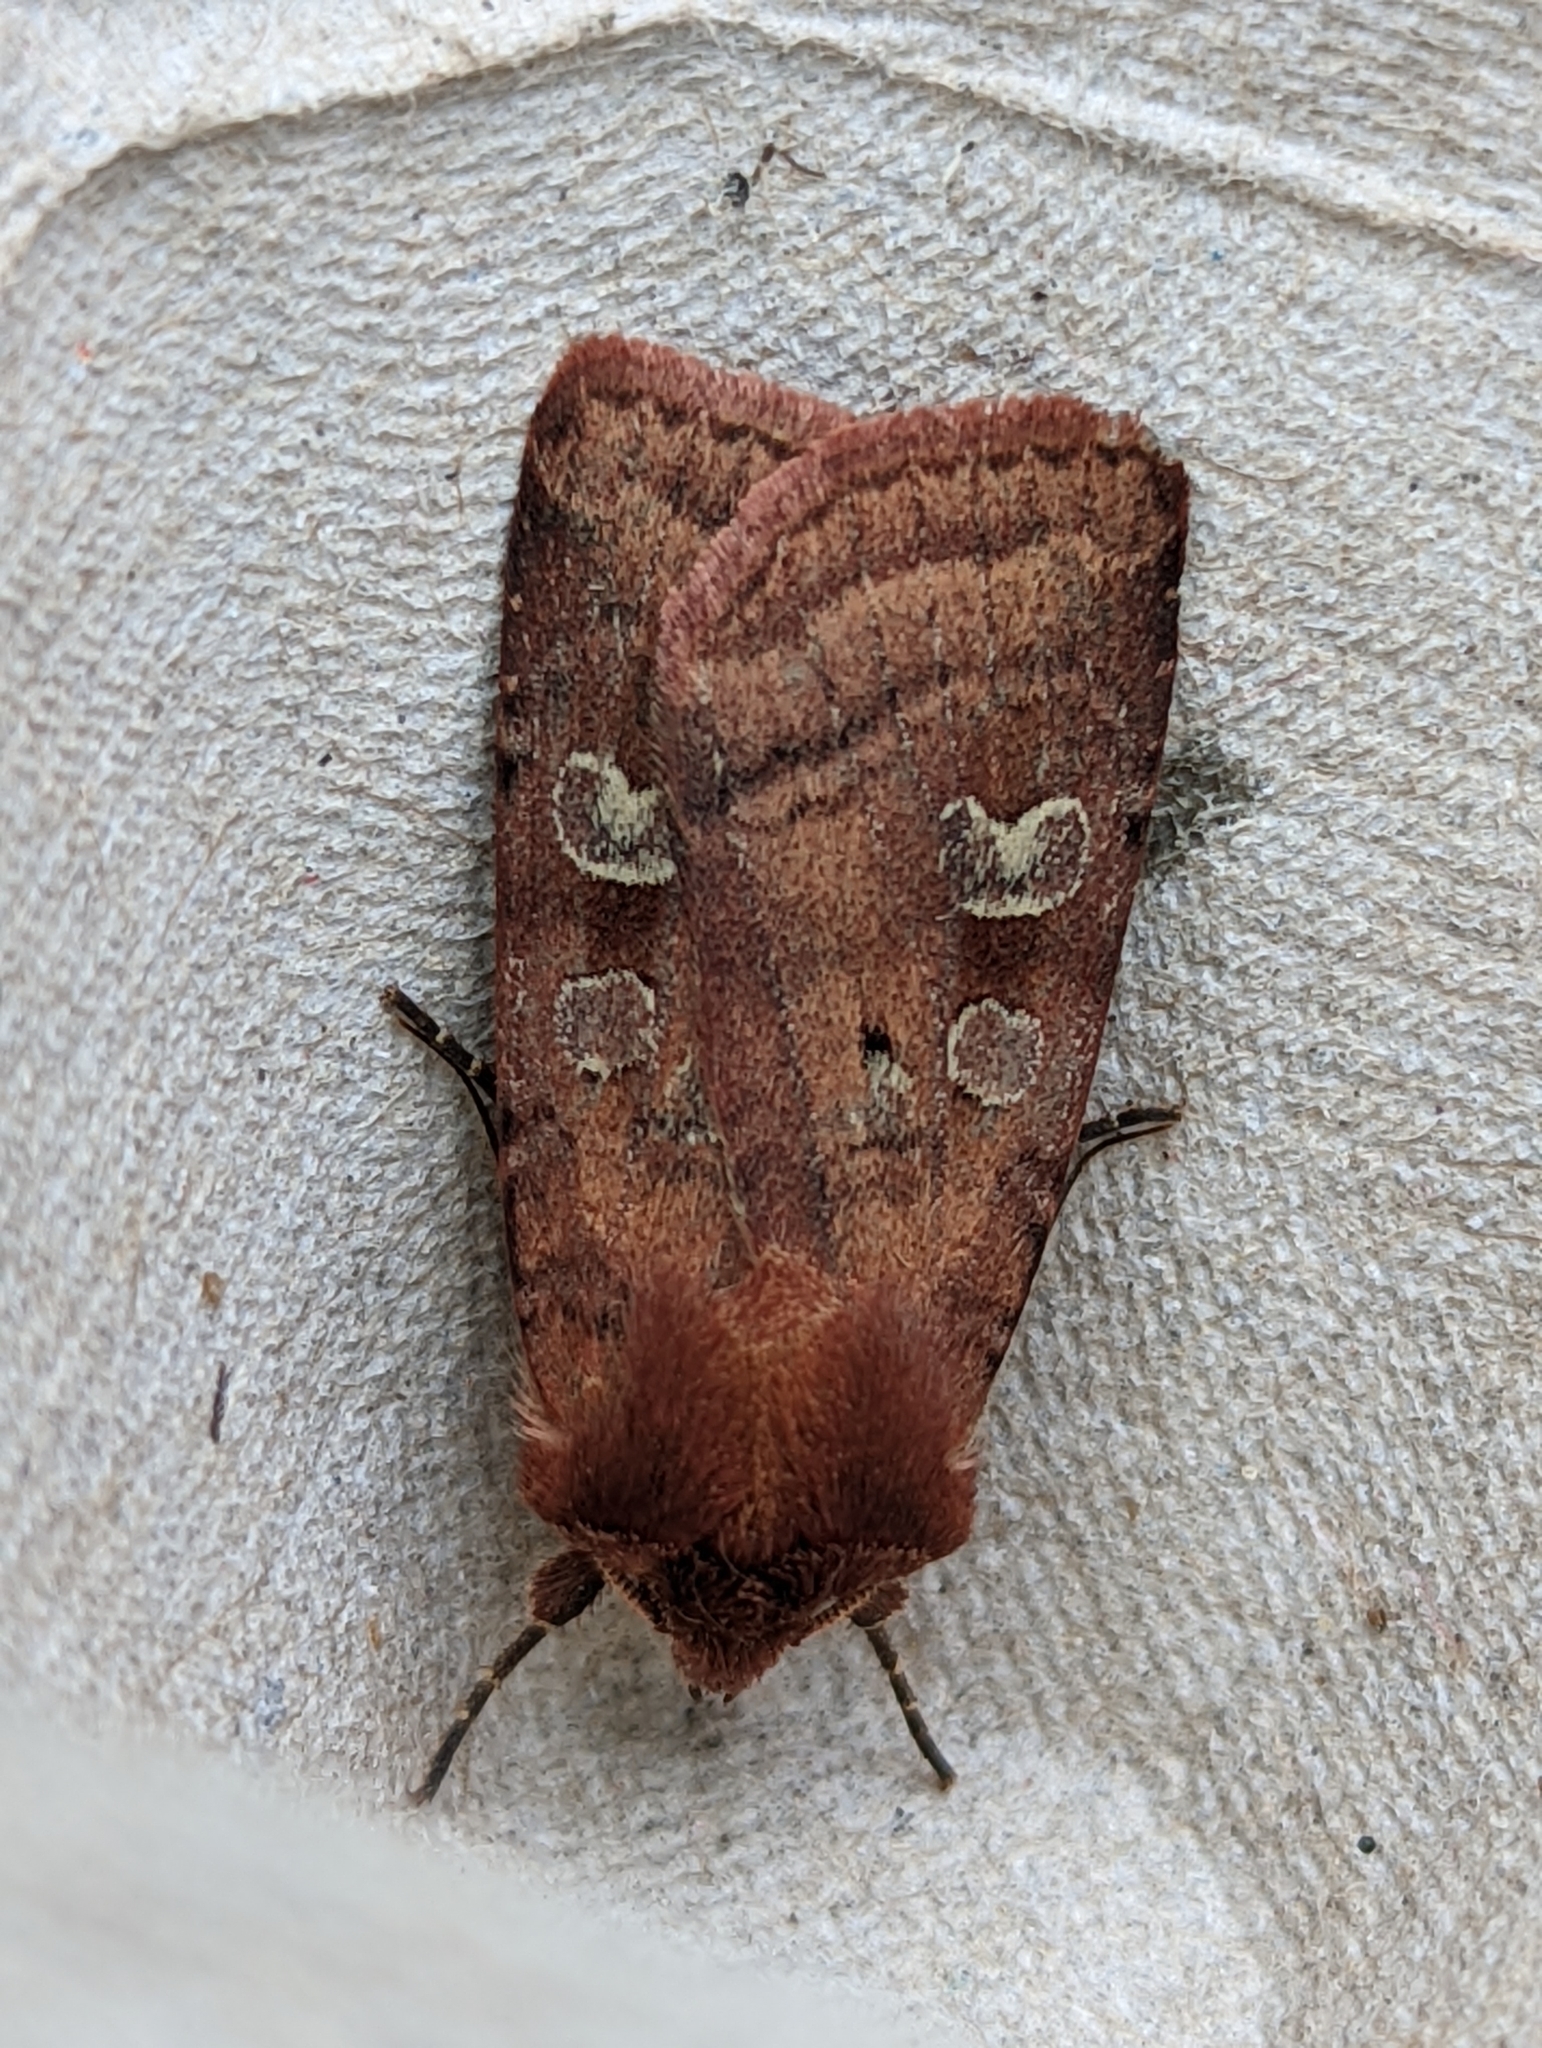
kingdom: Animalia
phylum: Arthropoda
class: Insecta
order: Lepidoptera
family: Noctuidae
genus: Diarsia
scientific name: Diarsia rubi
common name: Small square-spot
